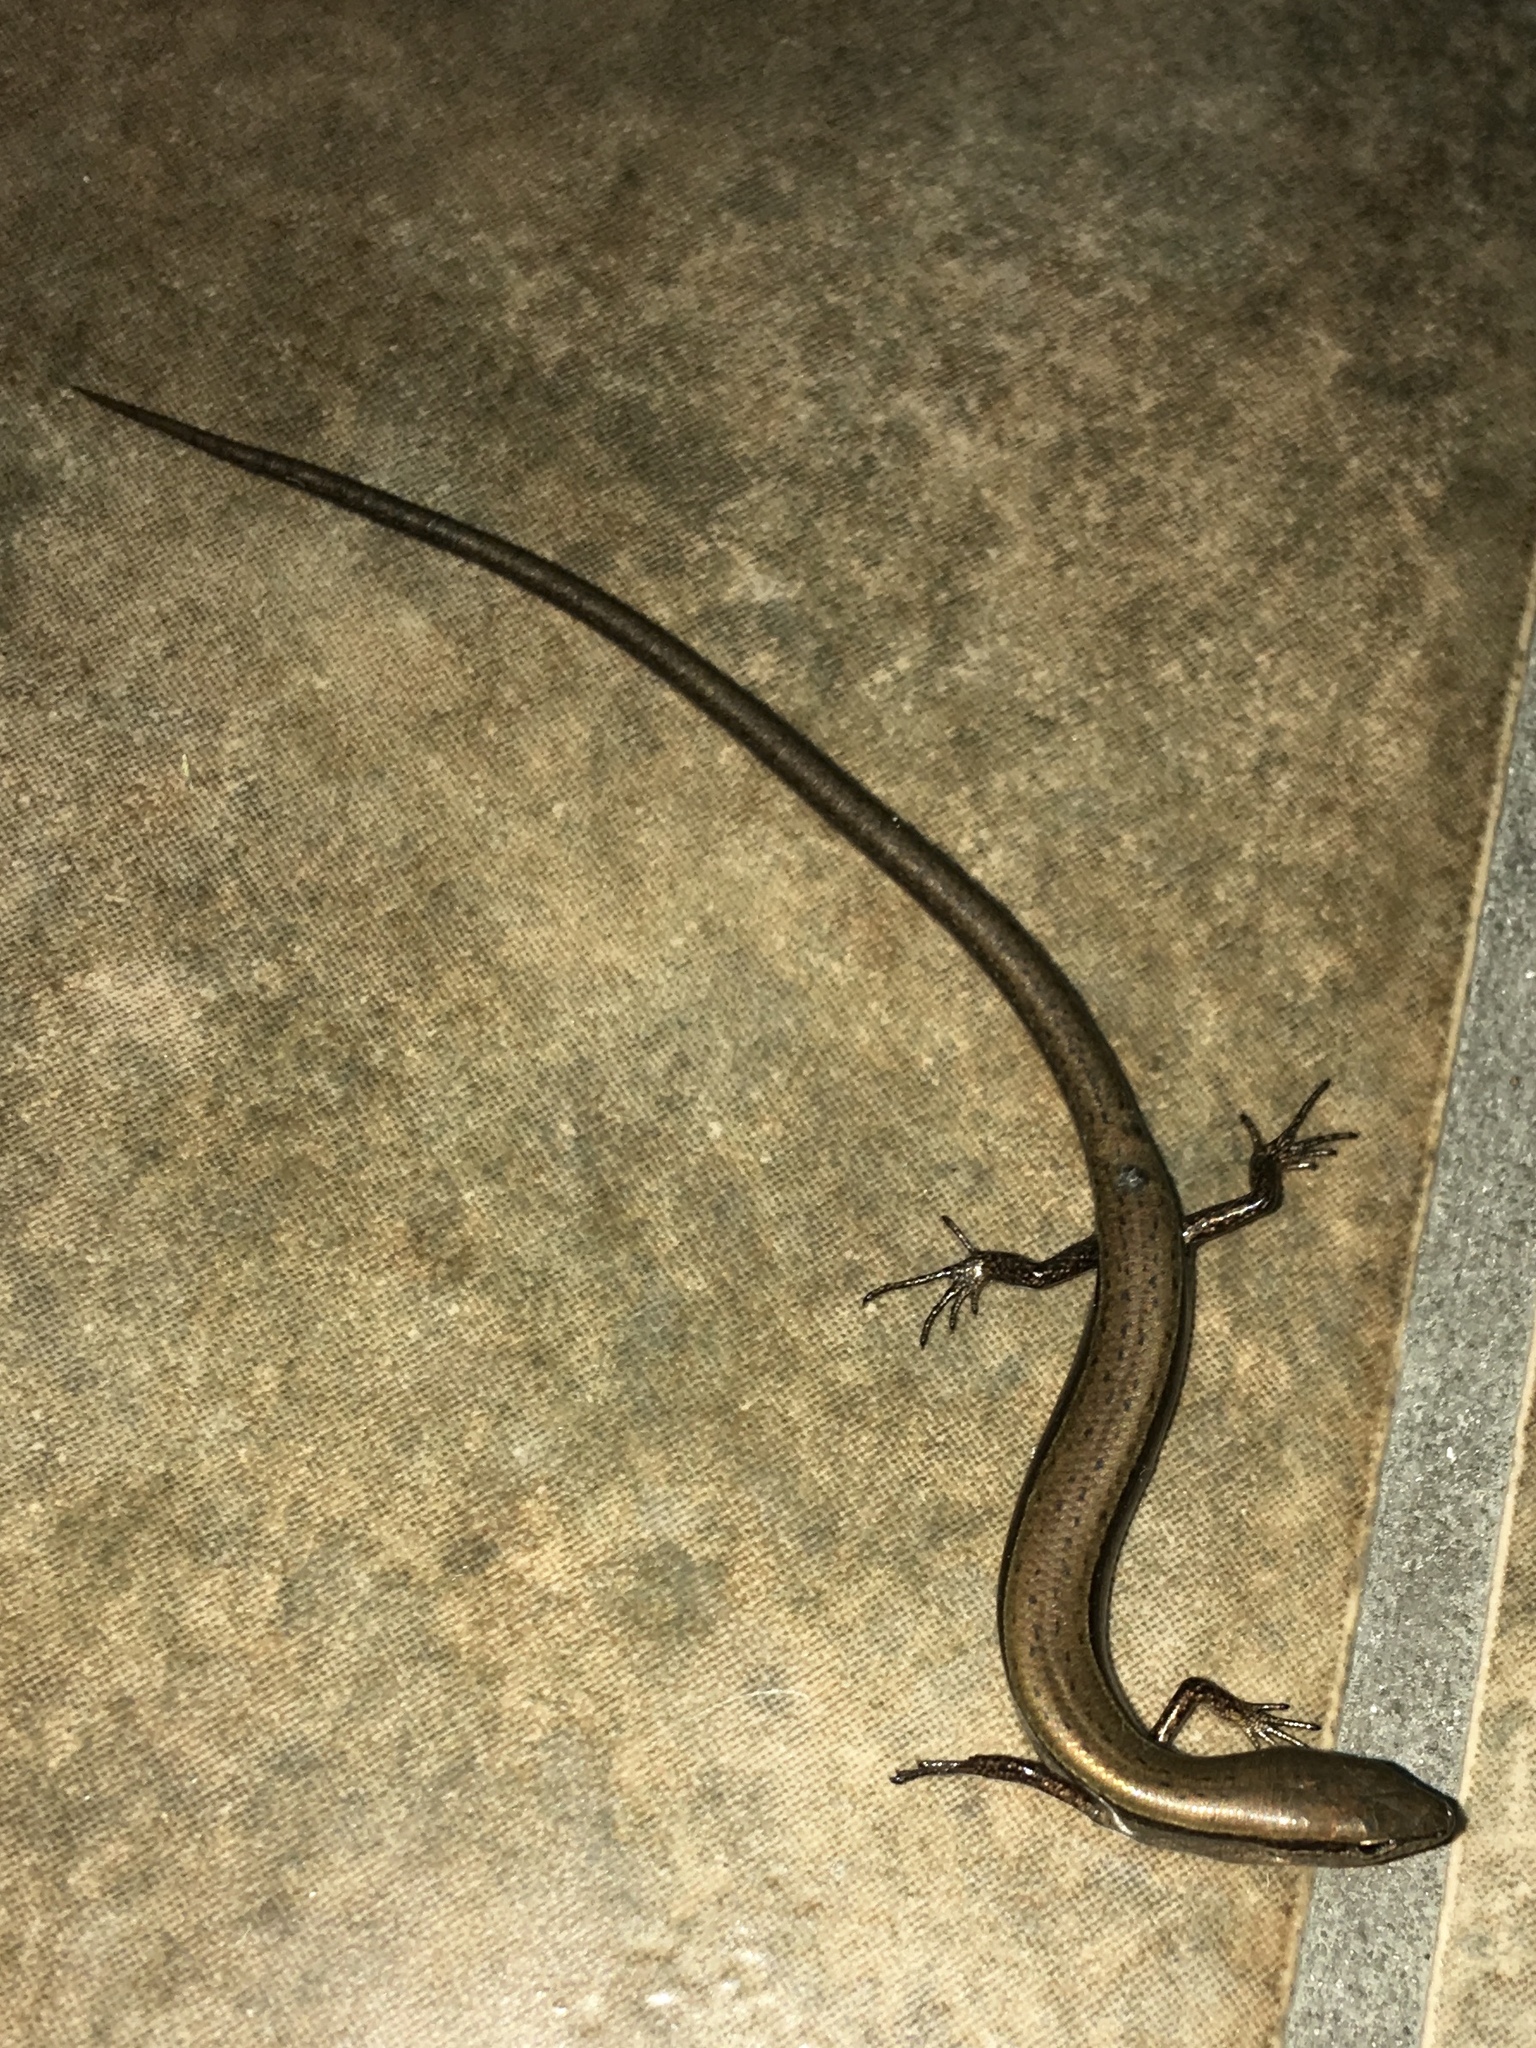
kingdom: Animalia
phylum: Chordata
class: Squamata
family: Scincidae
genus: Scincella
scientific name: Scincella lateralis
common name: Ground skink
